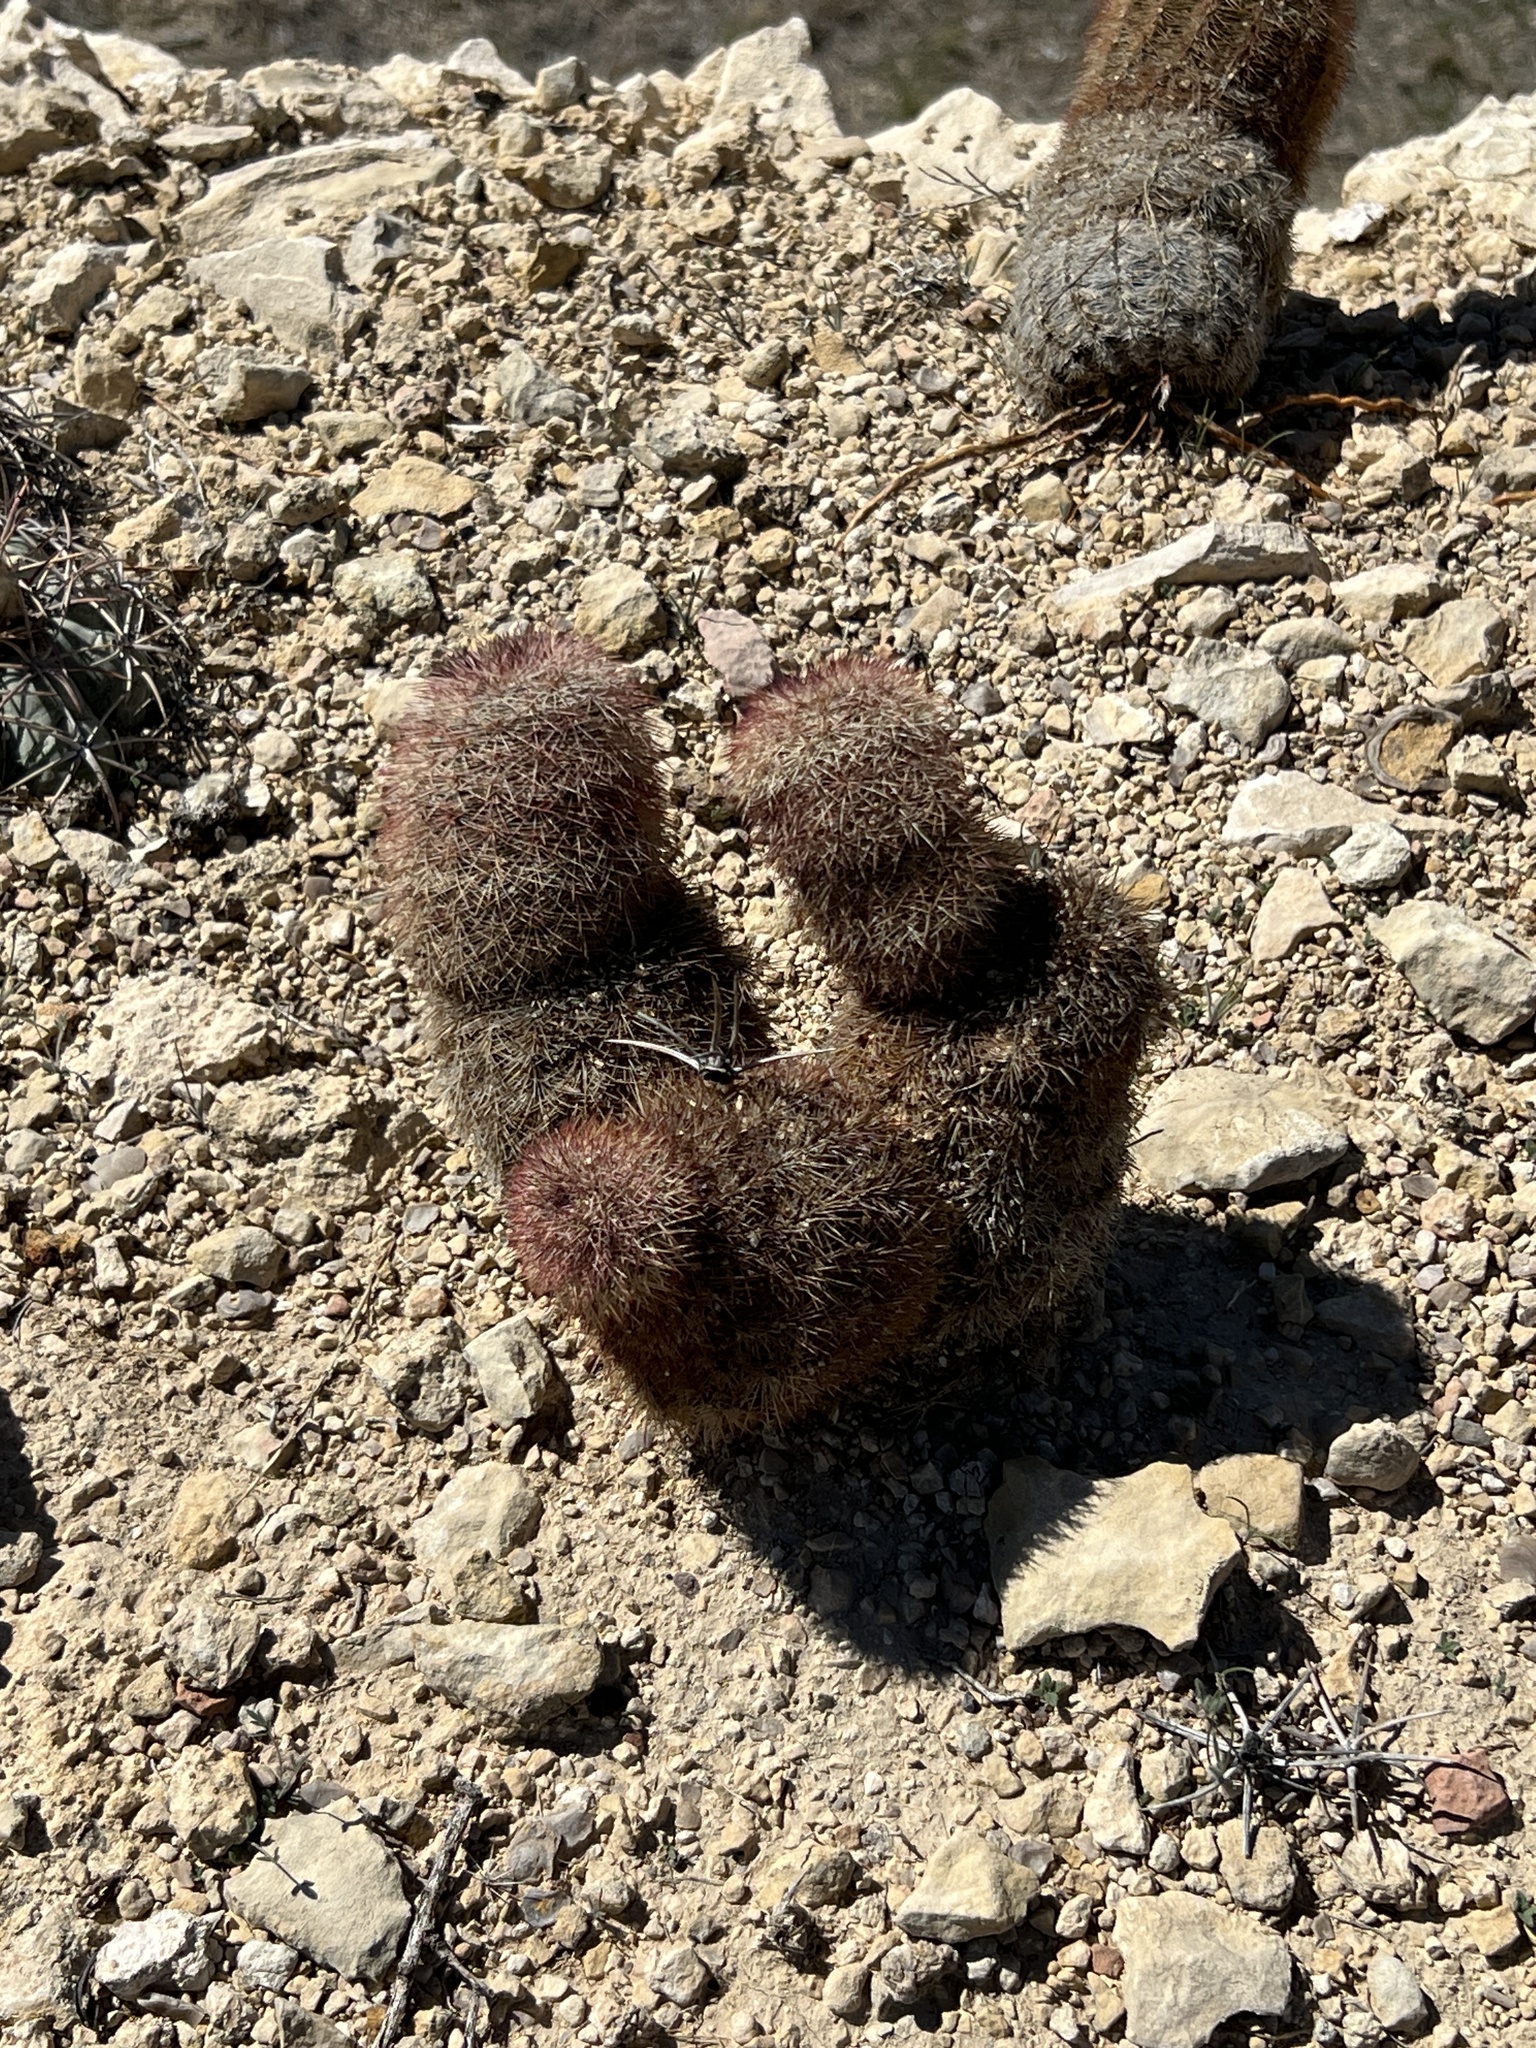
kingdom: Plantae
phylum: Tracheophyta
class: Magnoliopsida
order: Caryophyllales
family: Cactaceae
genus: Echinocereus
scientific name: Echinocereus dasyacanthus
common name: Spiny hedgehog cactus
